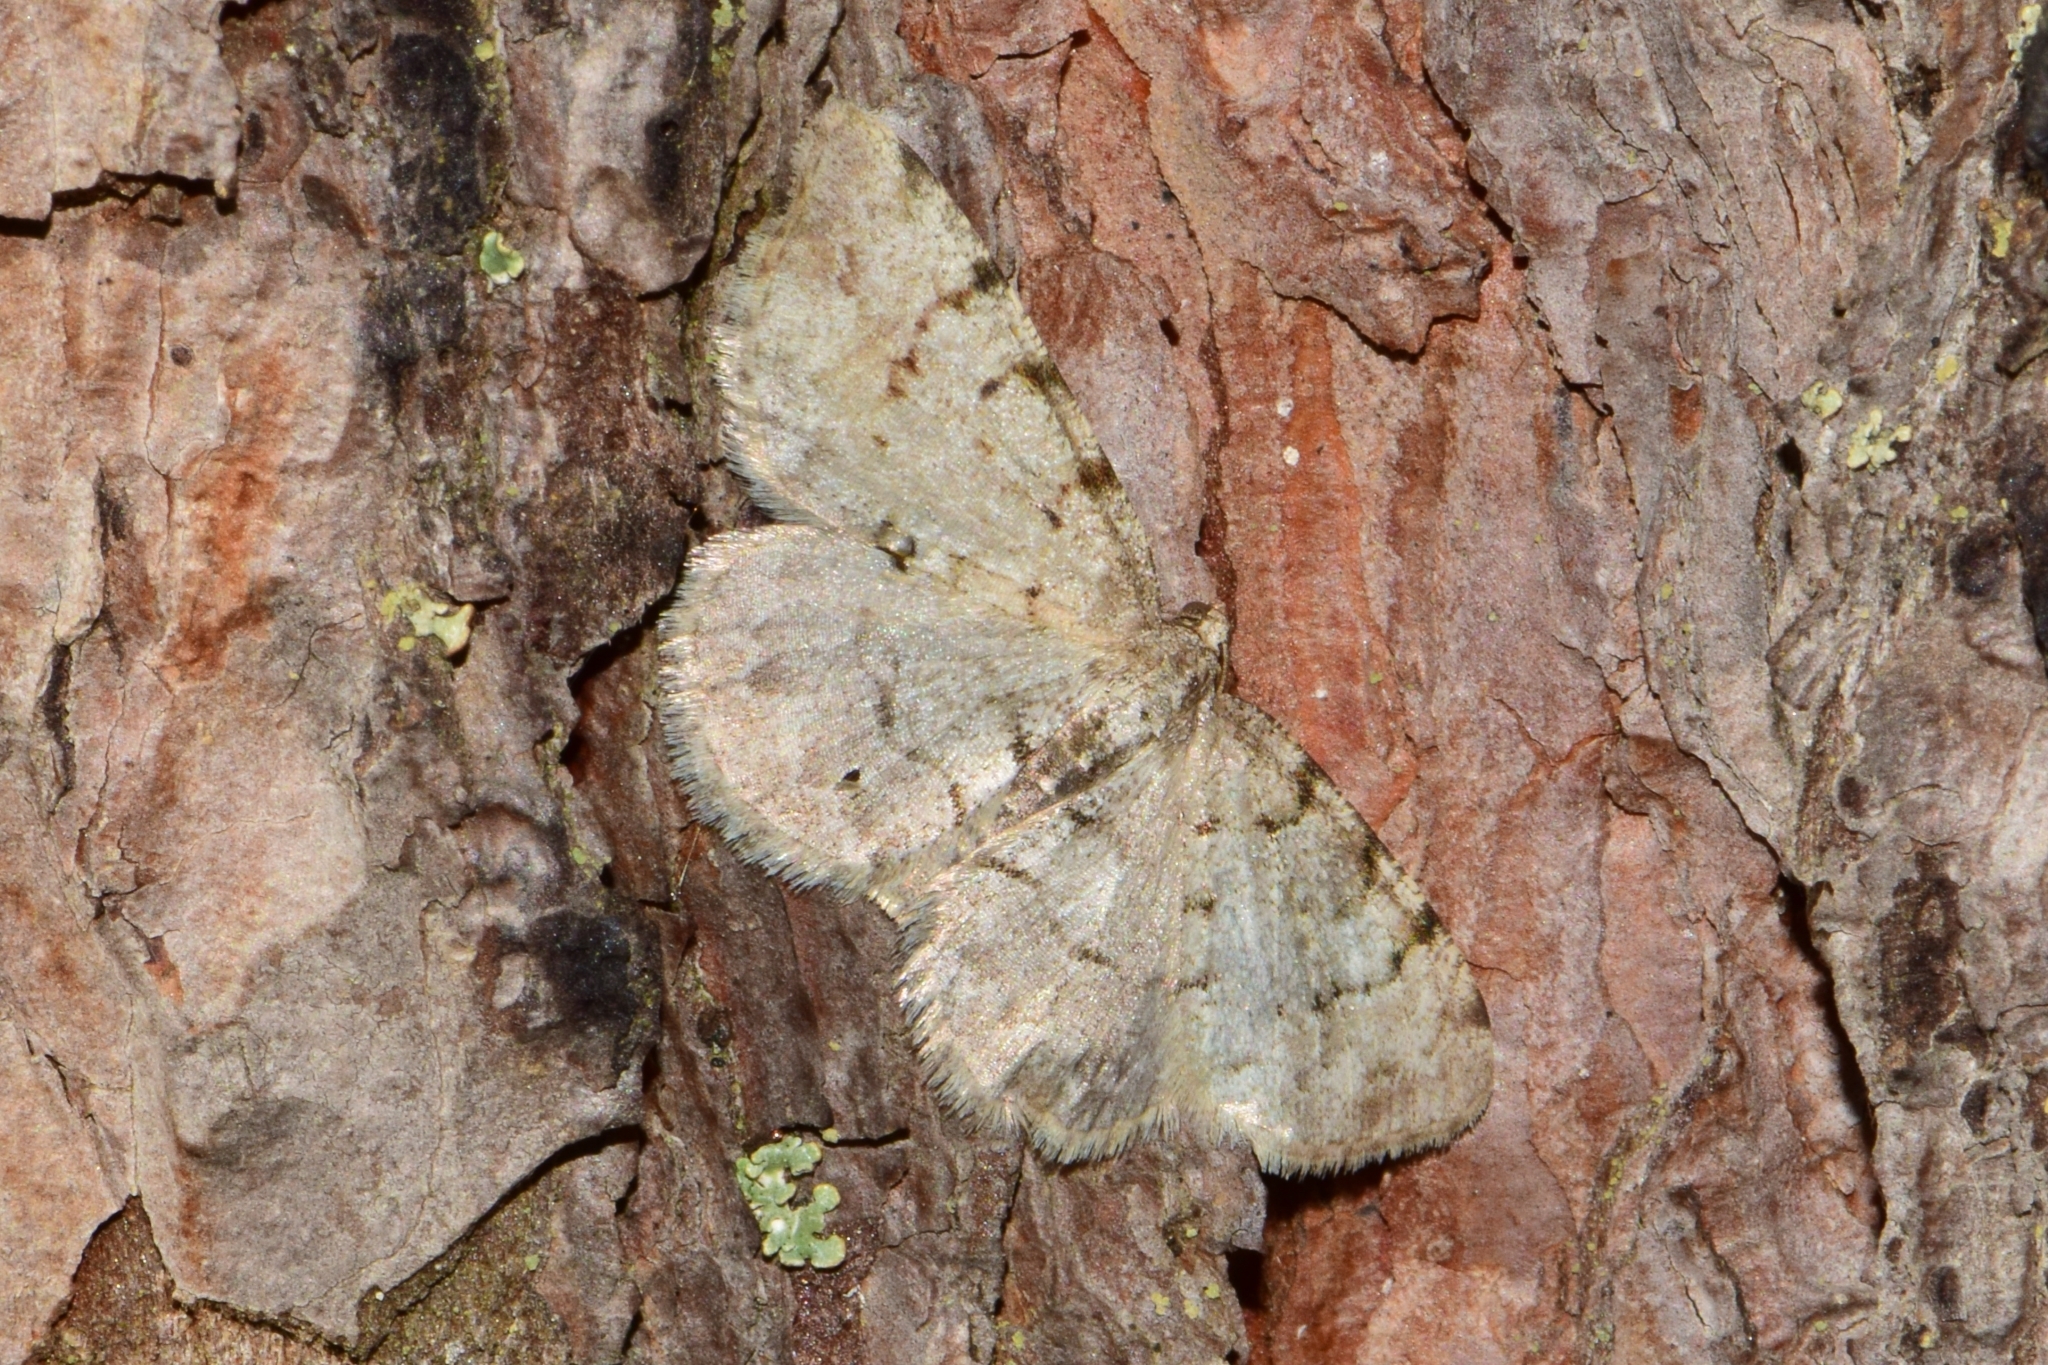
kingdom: Animalia
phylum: Arthropoda
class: Insecta
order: Lepidoptera
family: Geometridae
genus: Aethalura
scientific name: Aethalura punctulata
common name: Grey birch
